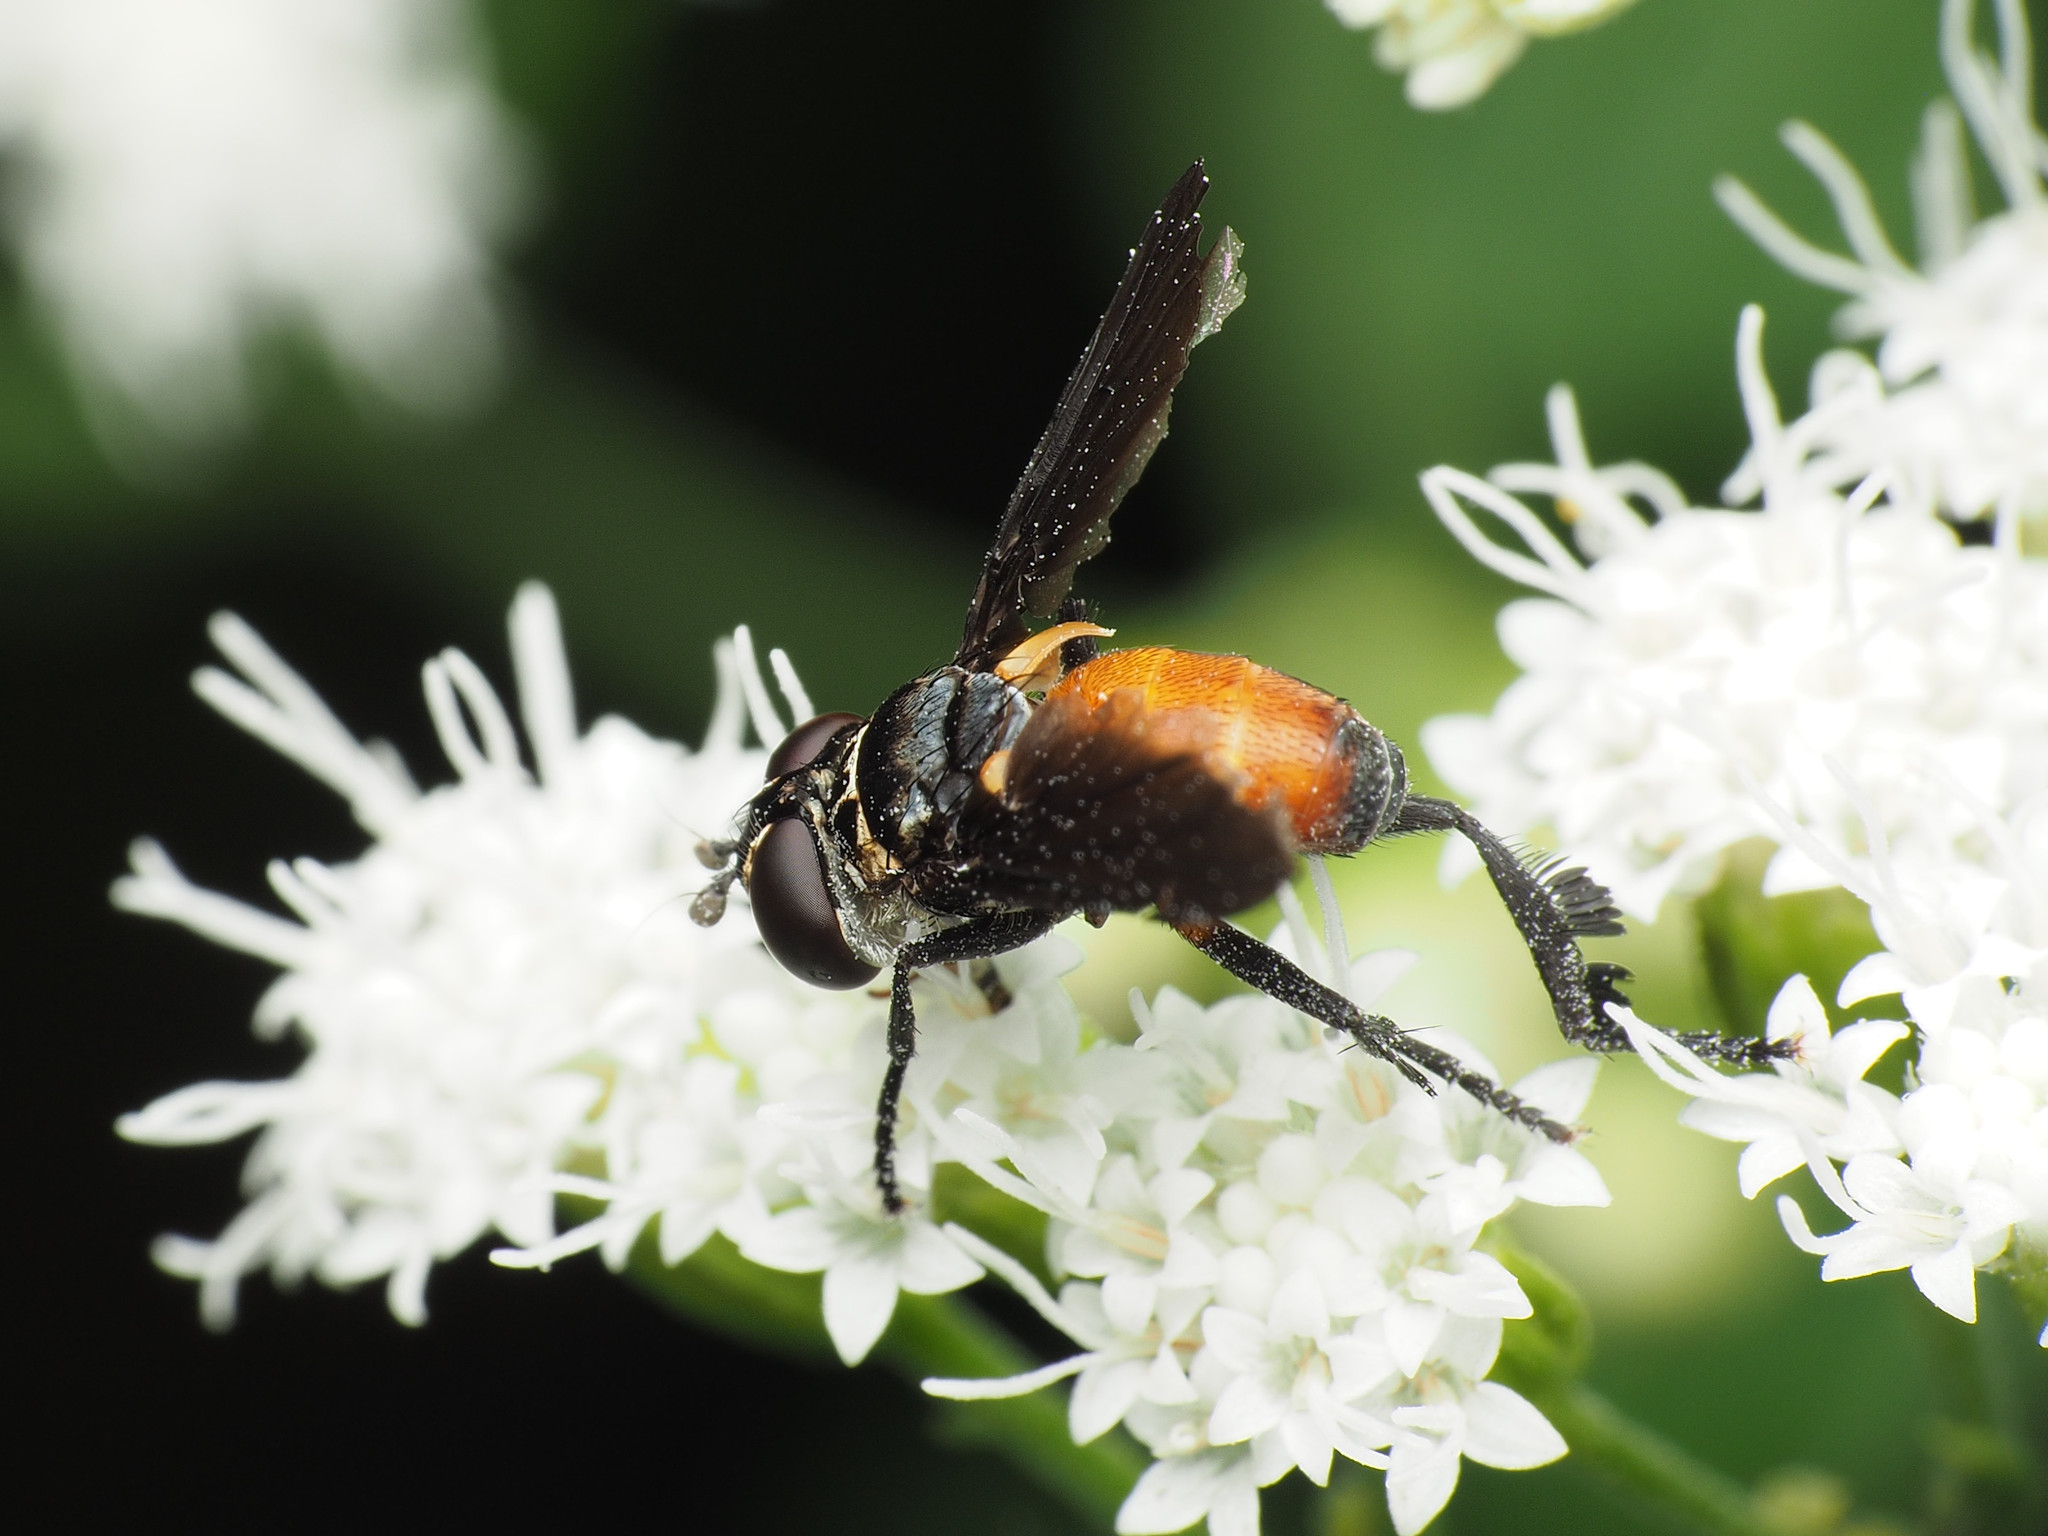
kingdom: Animalia
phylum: Arthropoda
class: Insecta
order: Diptera
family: Tachinidae
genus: Trichopoda
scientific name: Trichopoda pennipes
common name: Tachinid fly
